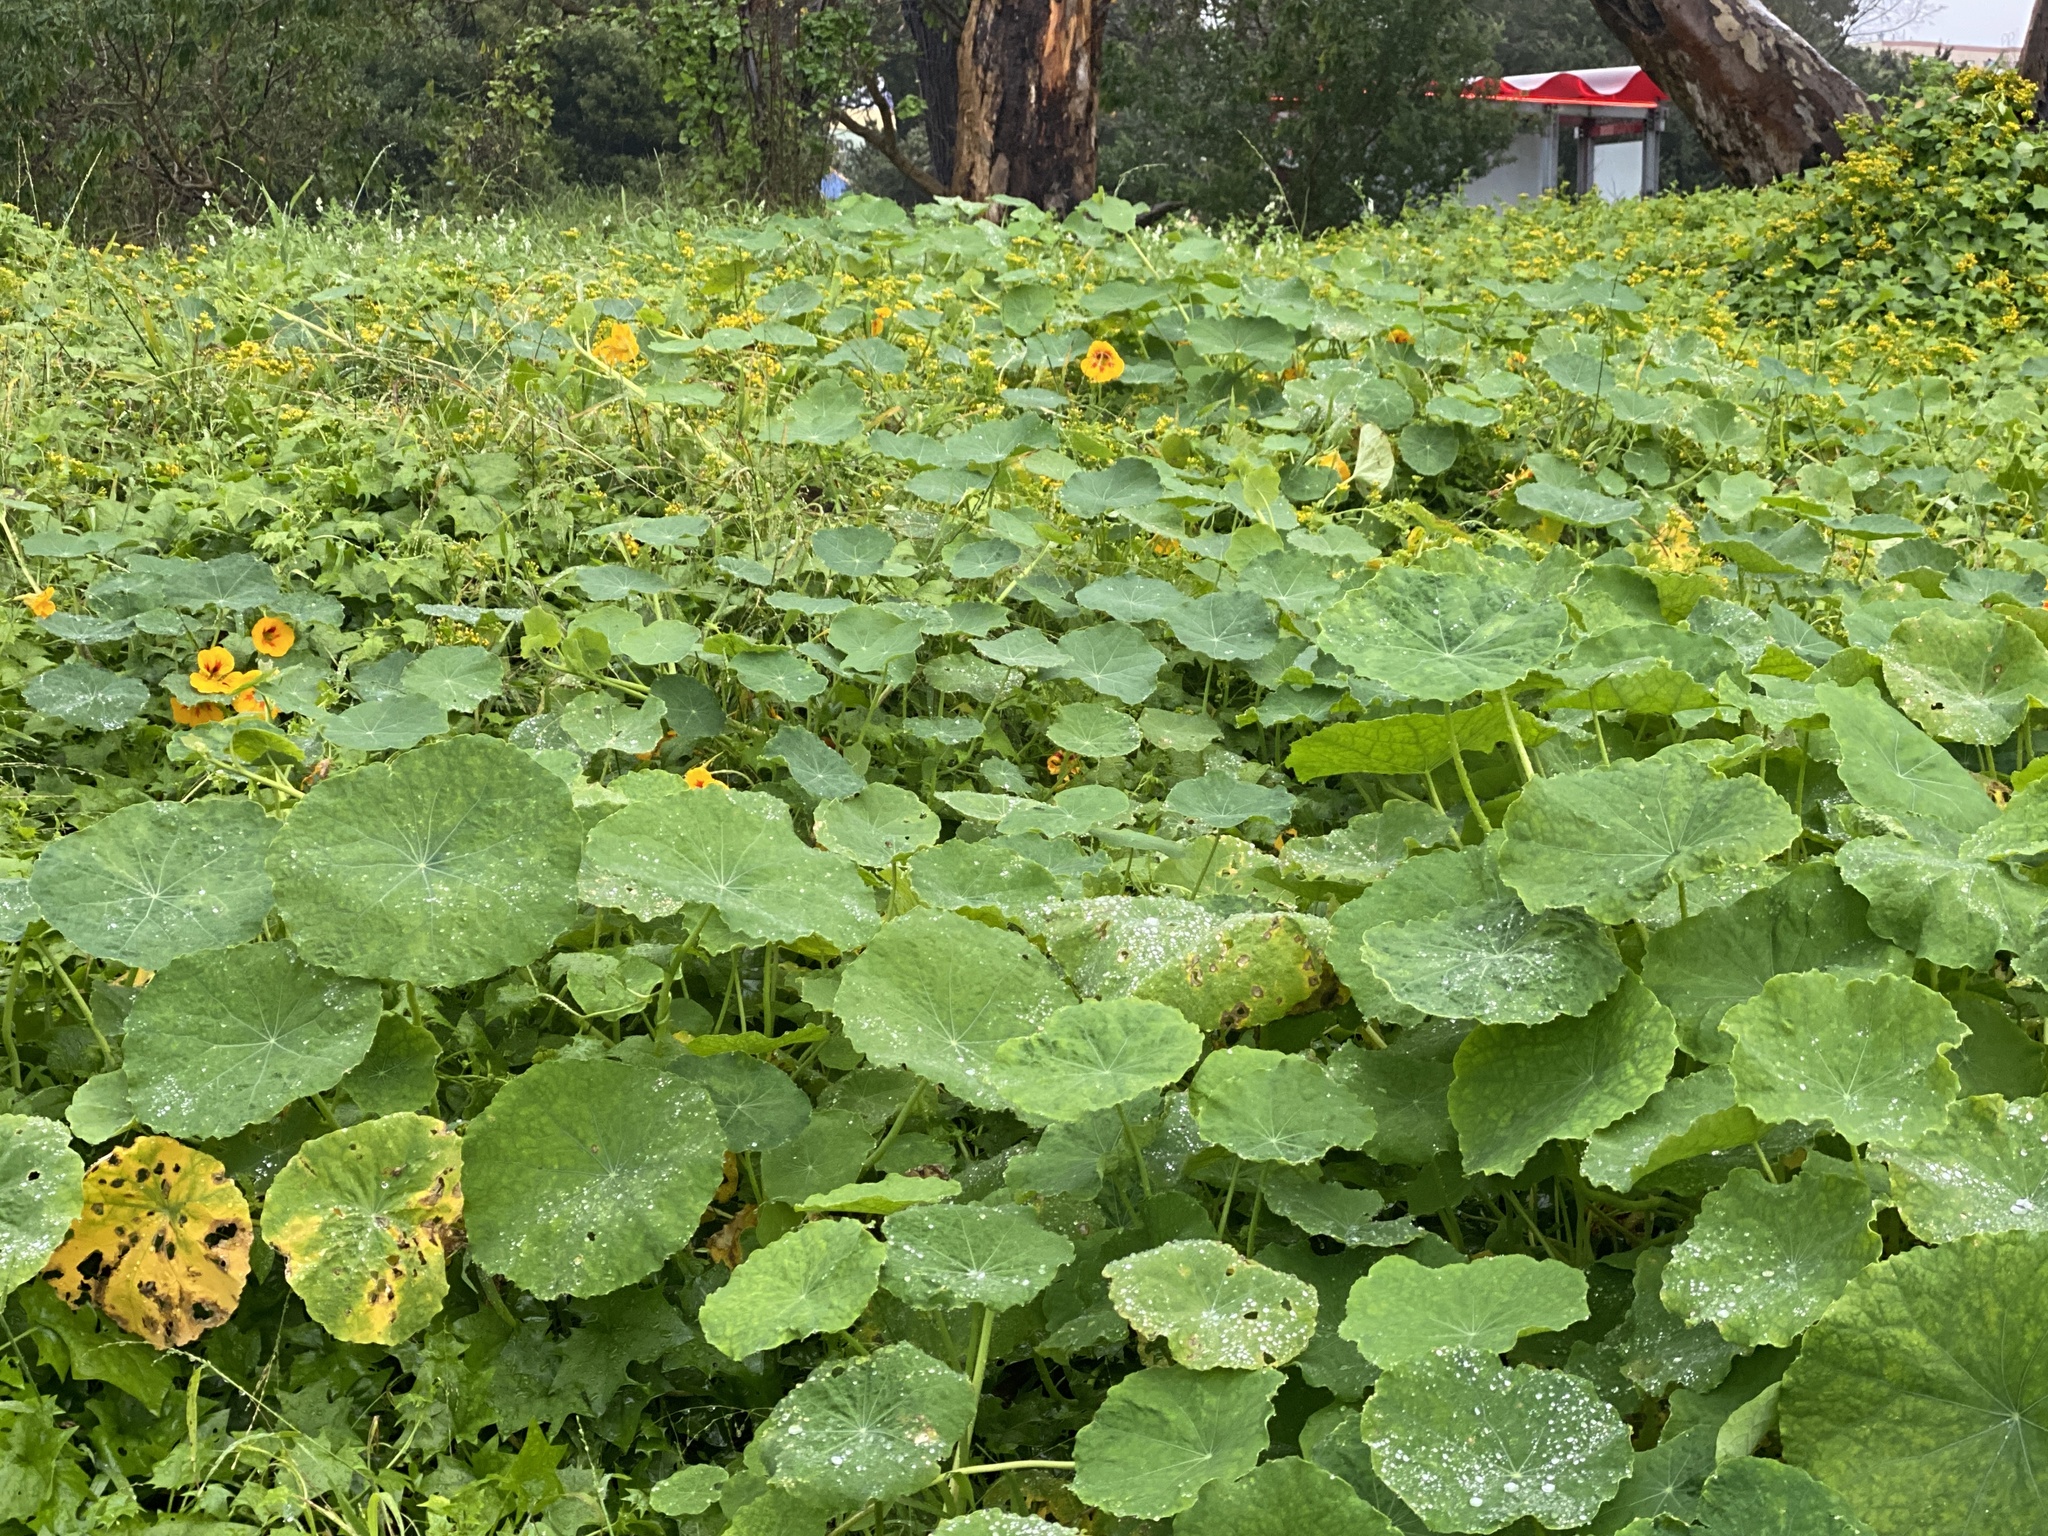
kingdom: Plantae
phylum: Tracheophyta
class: Magnoliopsida
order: Brassicales
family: Tropaeolaceae
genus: Tropaeolum
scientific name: Tropaeolum majus
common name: Nasturtium
